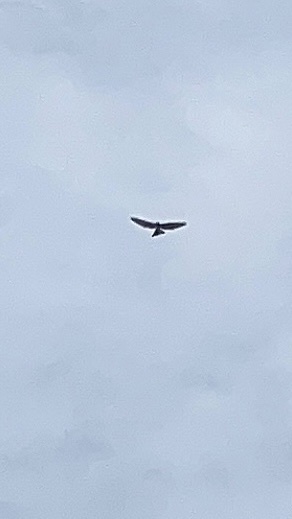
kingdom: Animalia
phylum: Chordata
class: Aves
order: Accipitriformes
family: Accipitridae
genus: Buteo
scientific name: Buteo platypterus
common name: Broad-winged hawk
